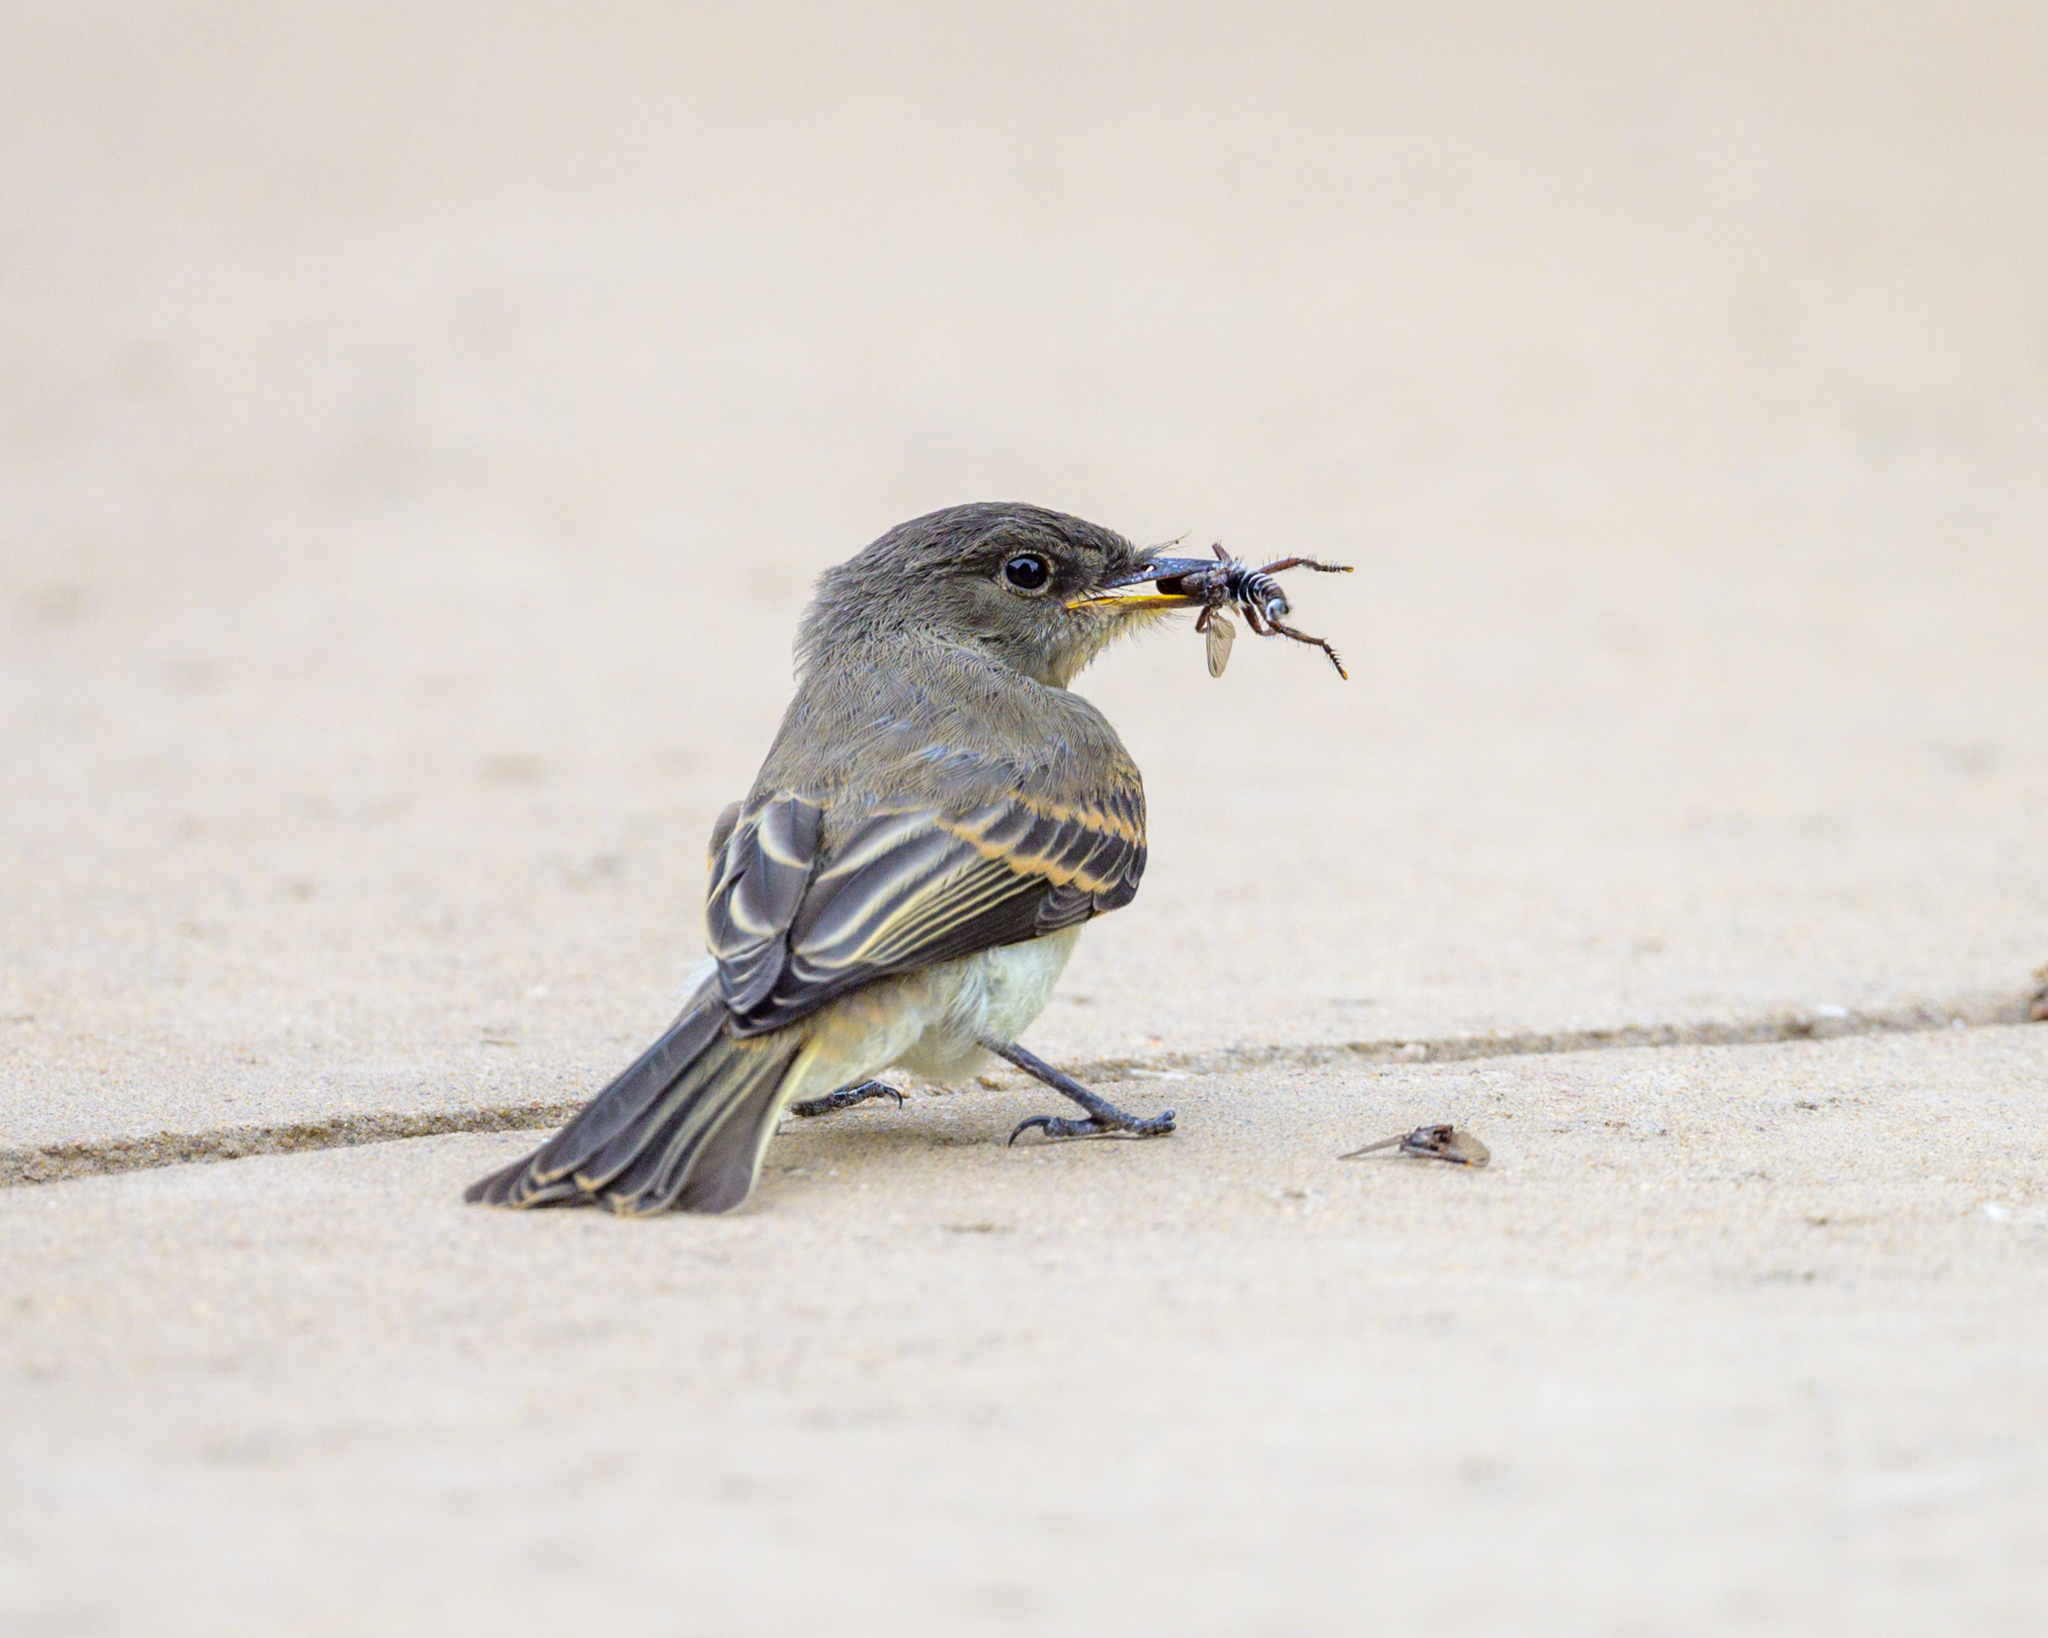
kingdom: Animalia
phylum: Chordata
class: Aves
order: Passeriformes
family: Tyrannidae
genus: Sayornis
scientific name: Sayornis phoebe
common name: Eastern phoebe
